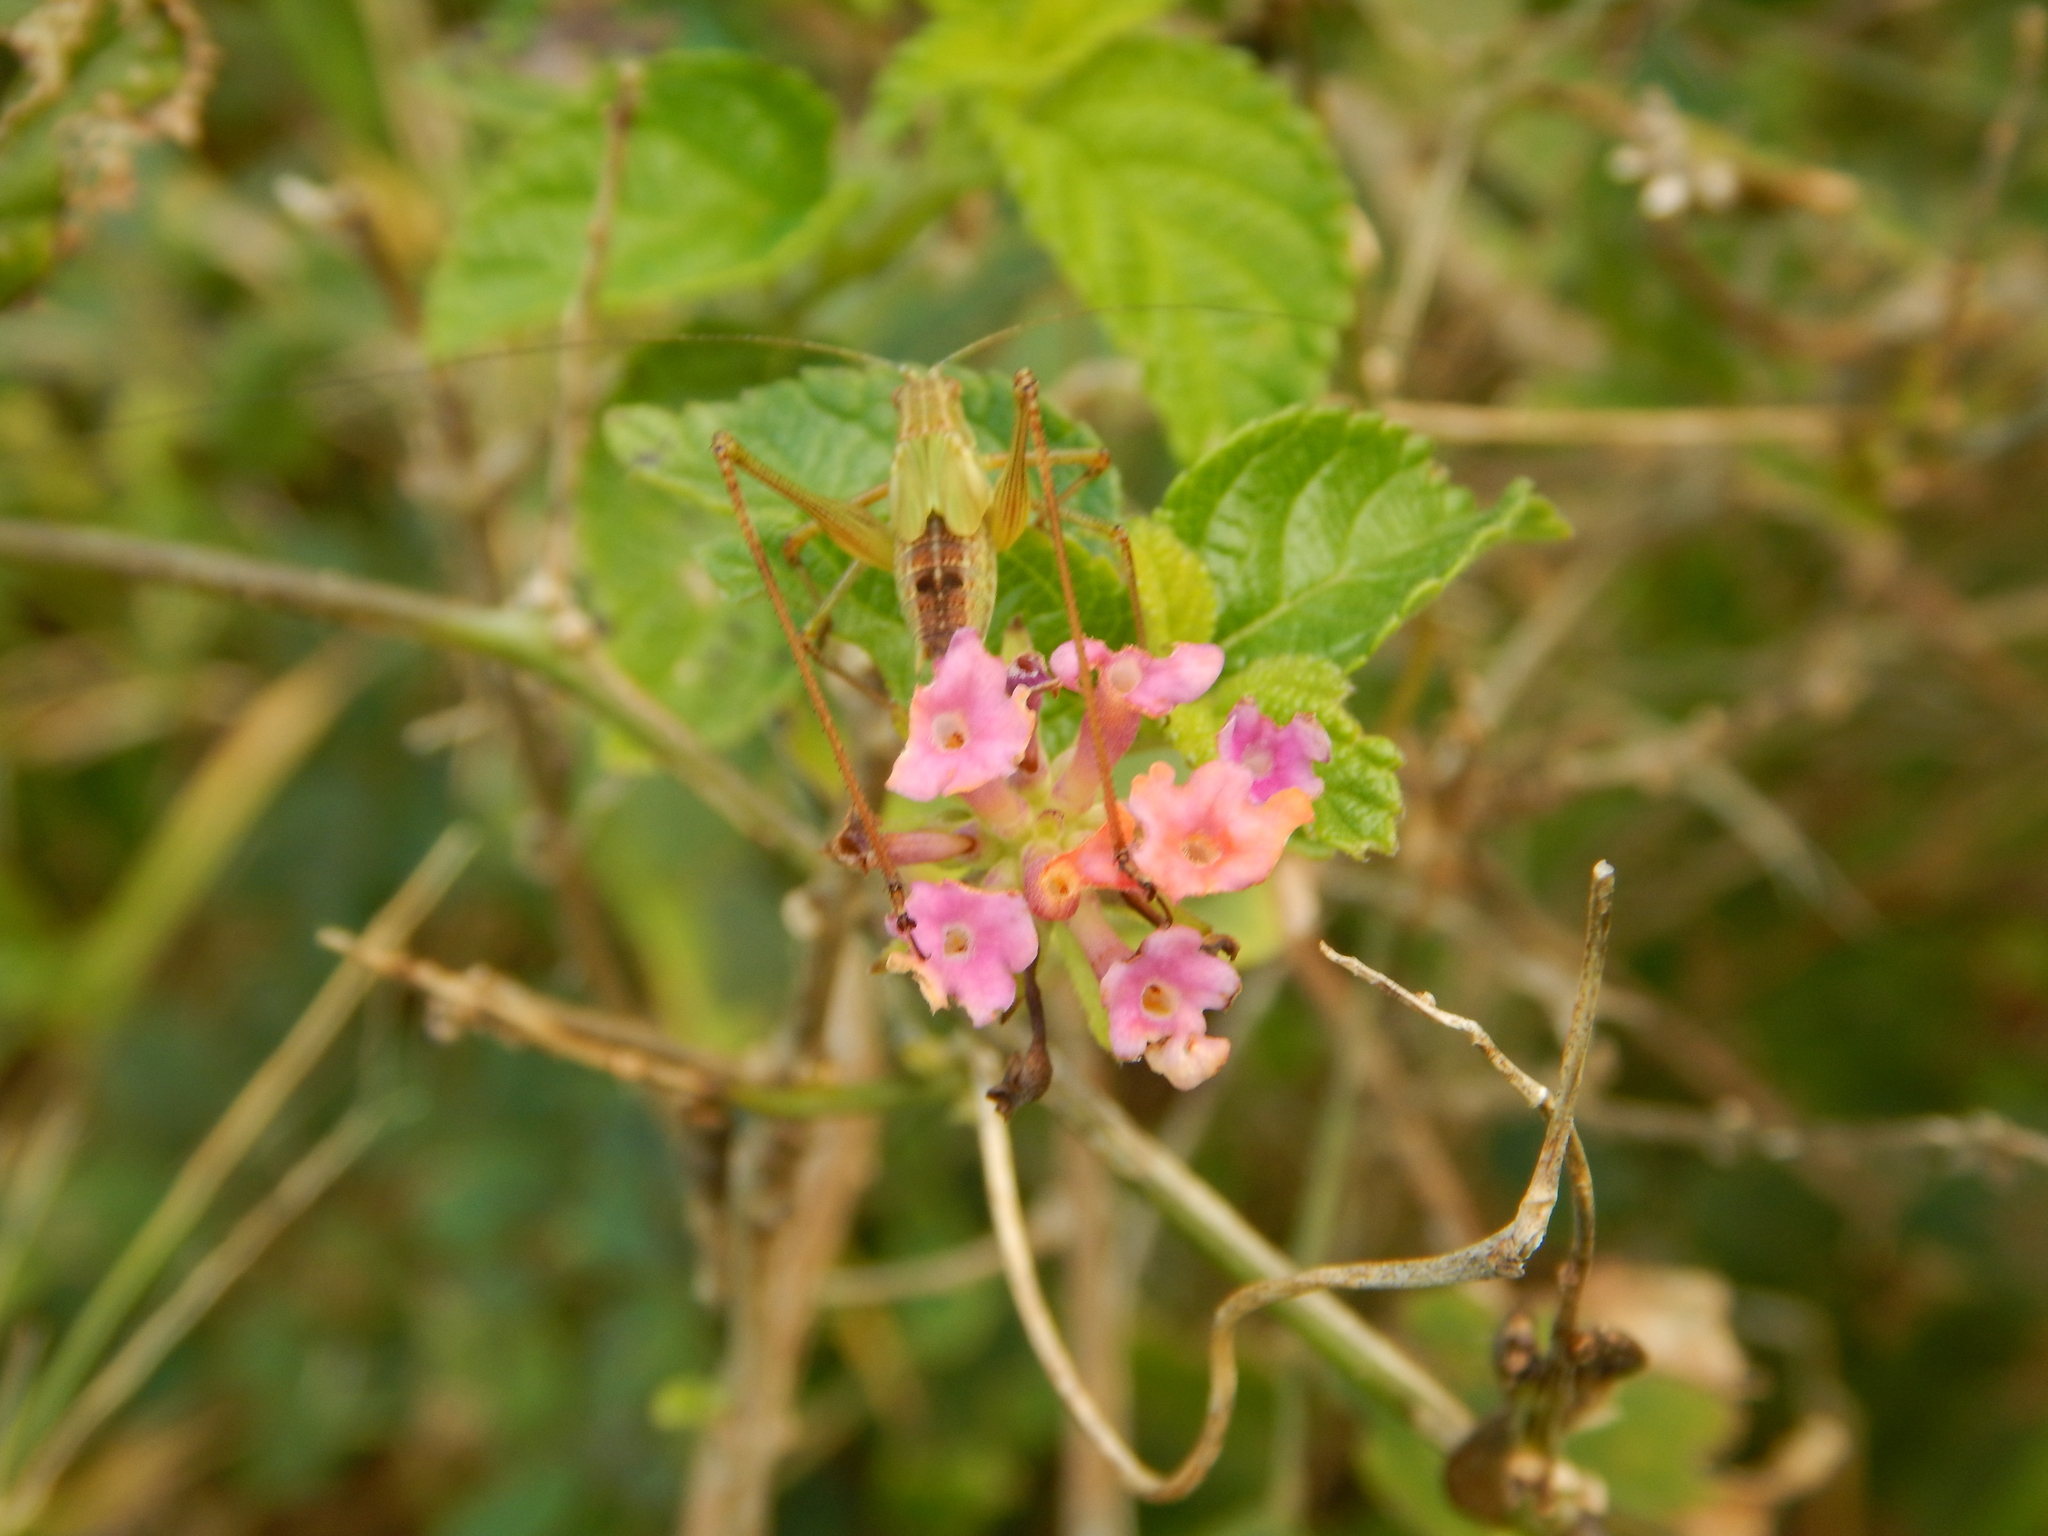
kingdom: Plantae
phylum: Tracheophyta
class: Magnoliopsida
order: Lamiales
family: Verbenaceae
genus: Lantana
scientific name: Lantana camara
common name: Lantana
